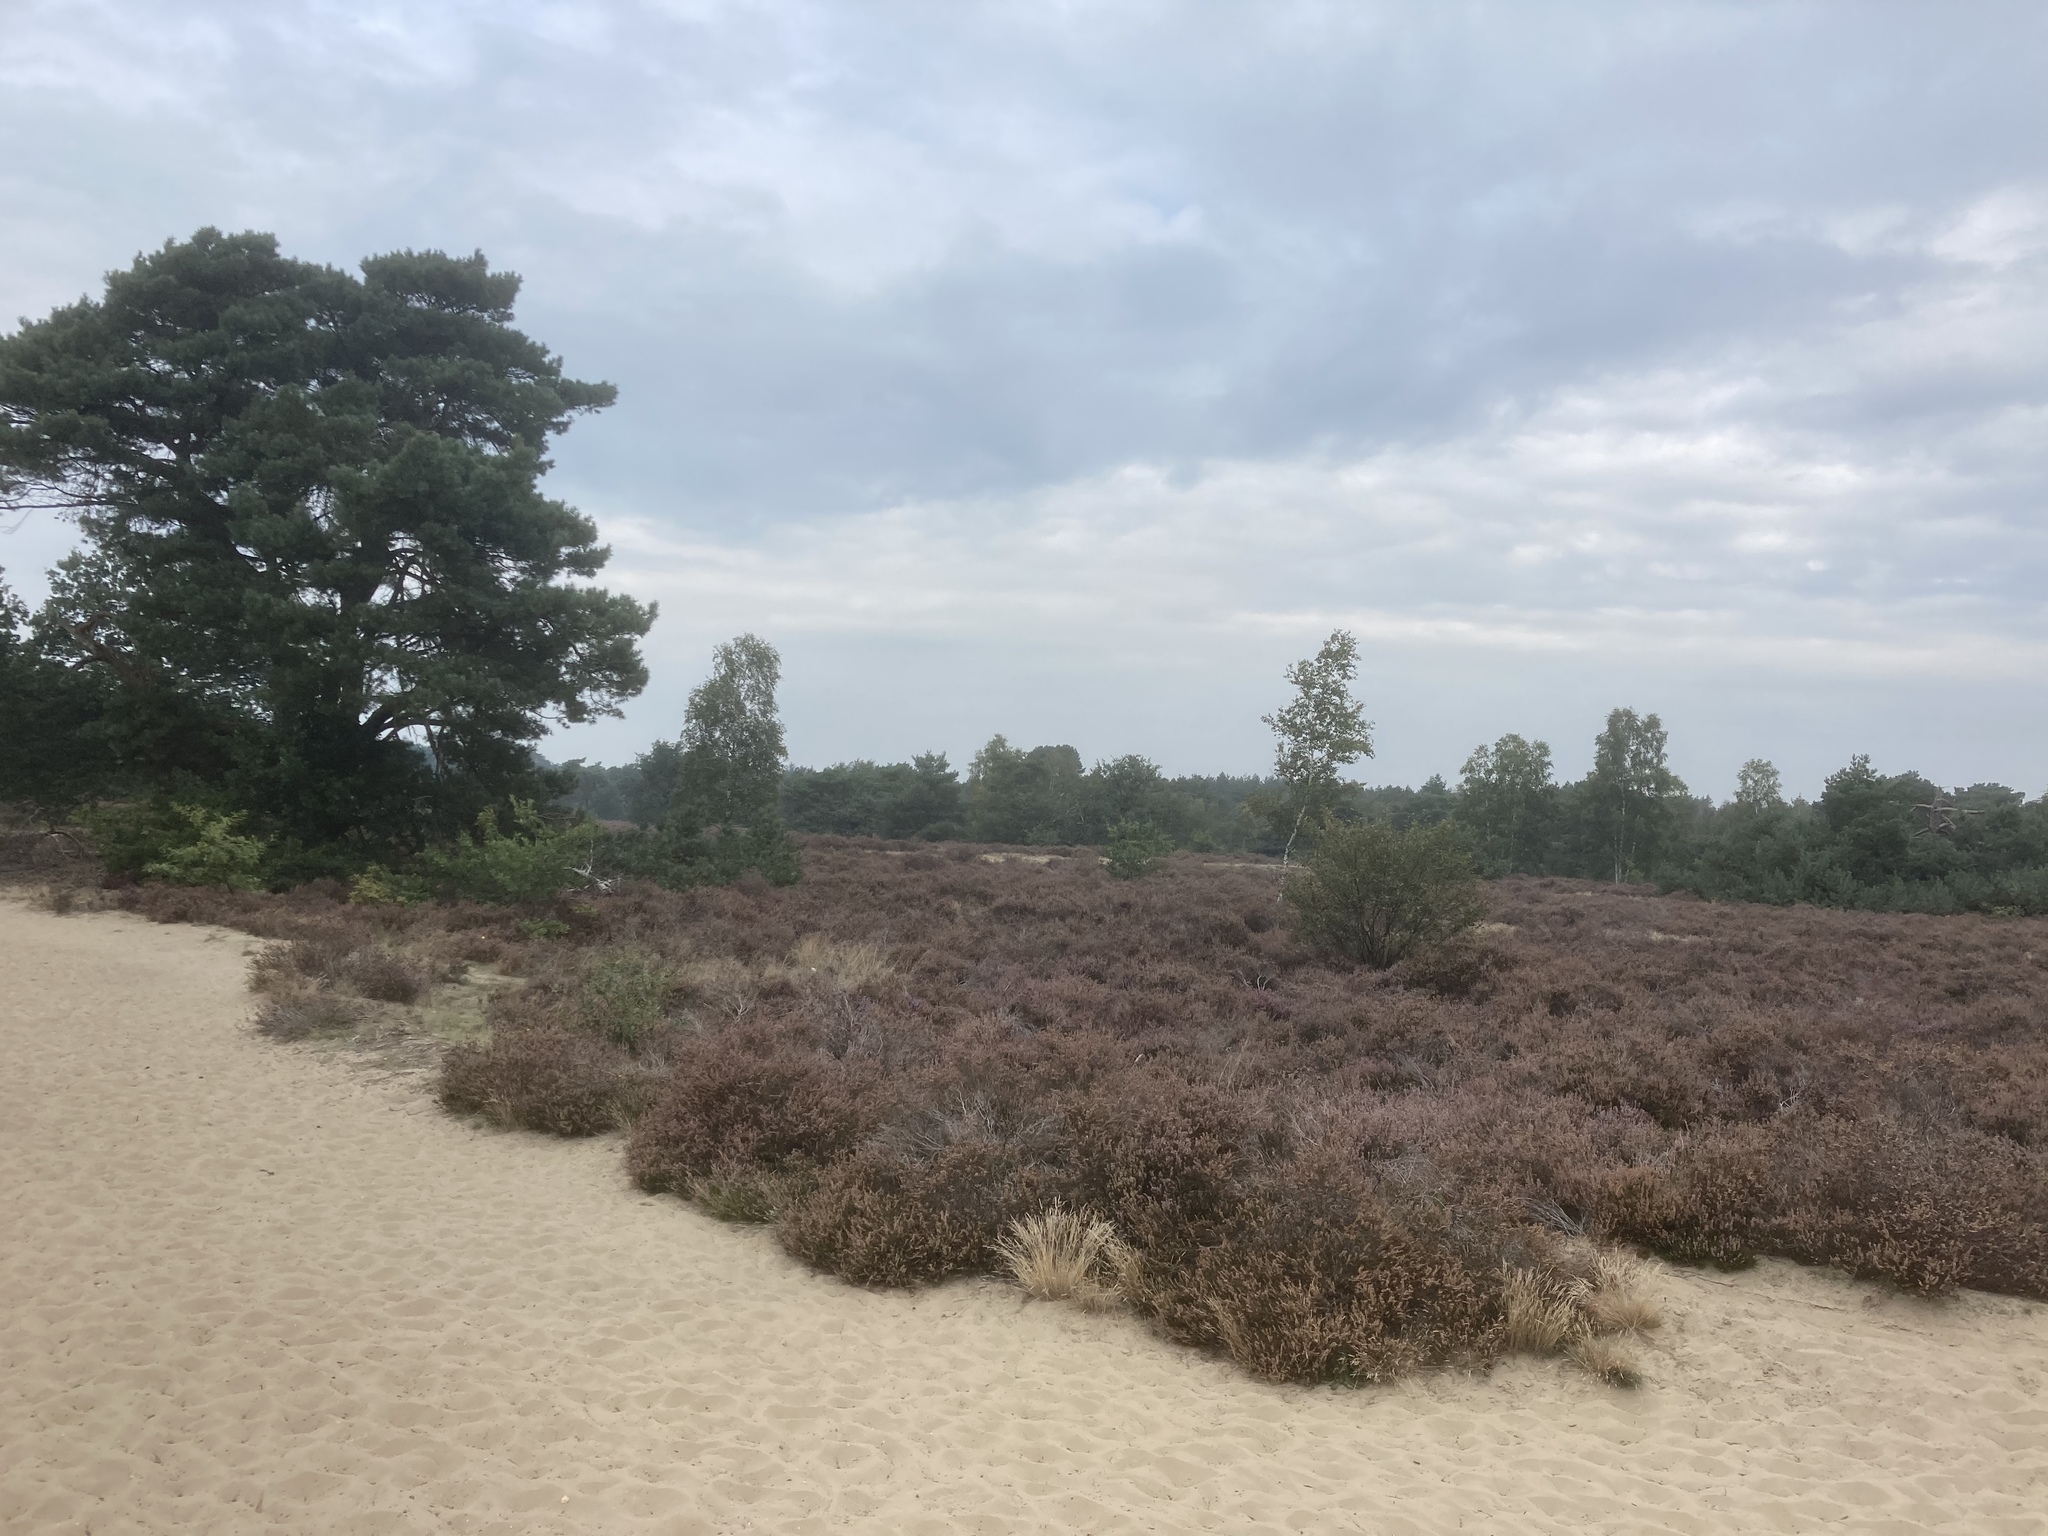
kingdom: Plantae
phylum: Tracheophyta
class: Magnoliopsida
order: Ericales
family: Ericaceae
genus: Calluna
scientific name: Calluna vulgaris
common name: Heather
